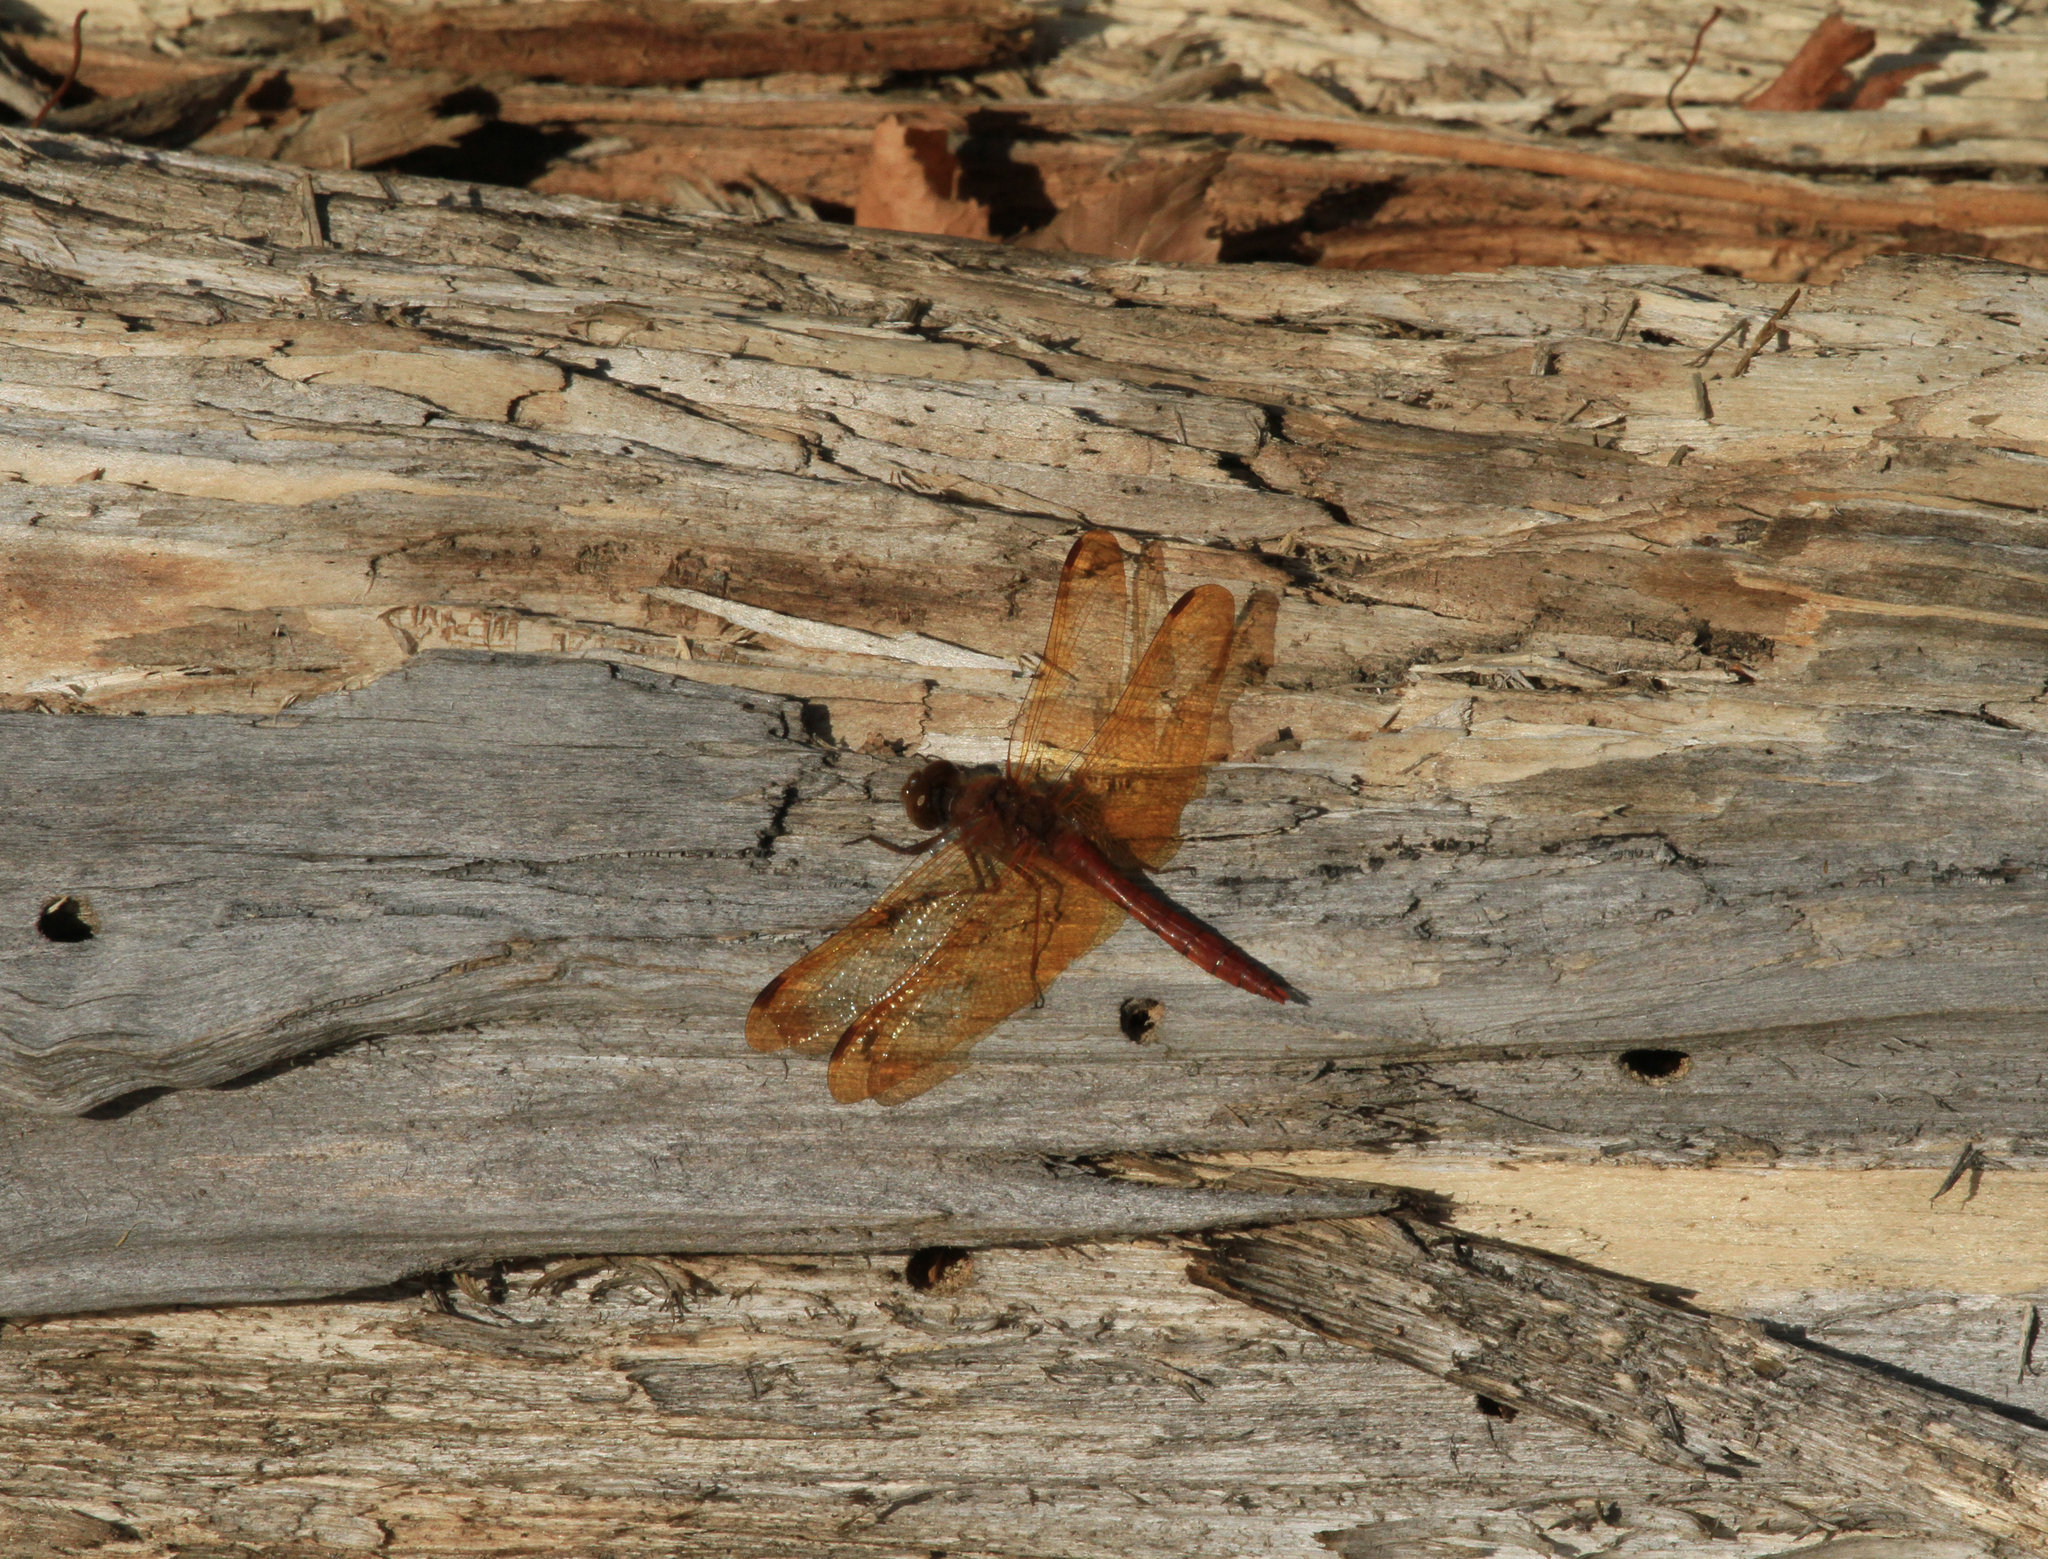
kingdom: Animalia
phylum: Arthropoda
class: Insecta
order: Odonata
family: Libellulidae
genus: Sympetrum
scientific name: Sympetrum croceolum
